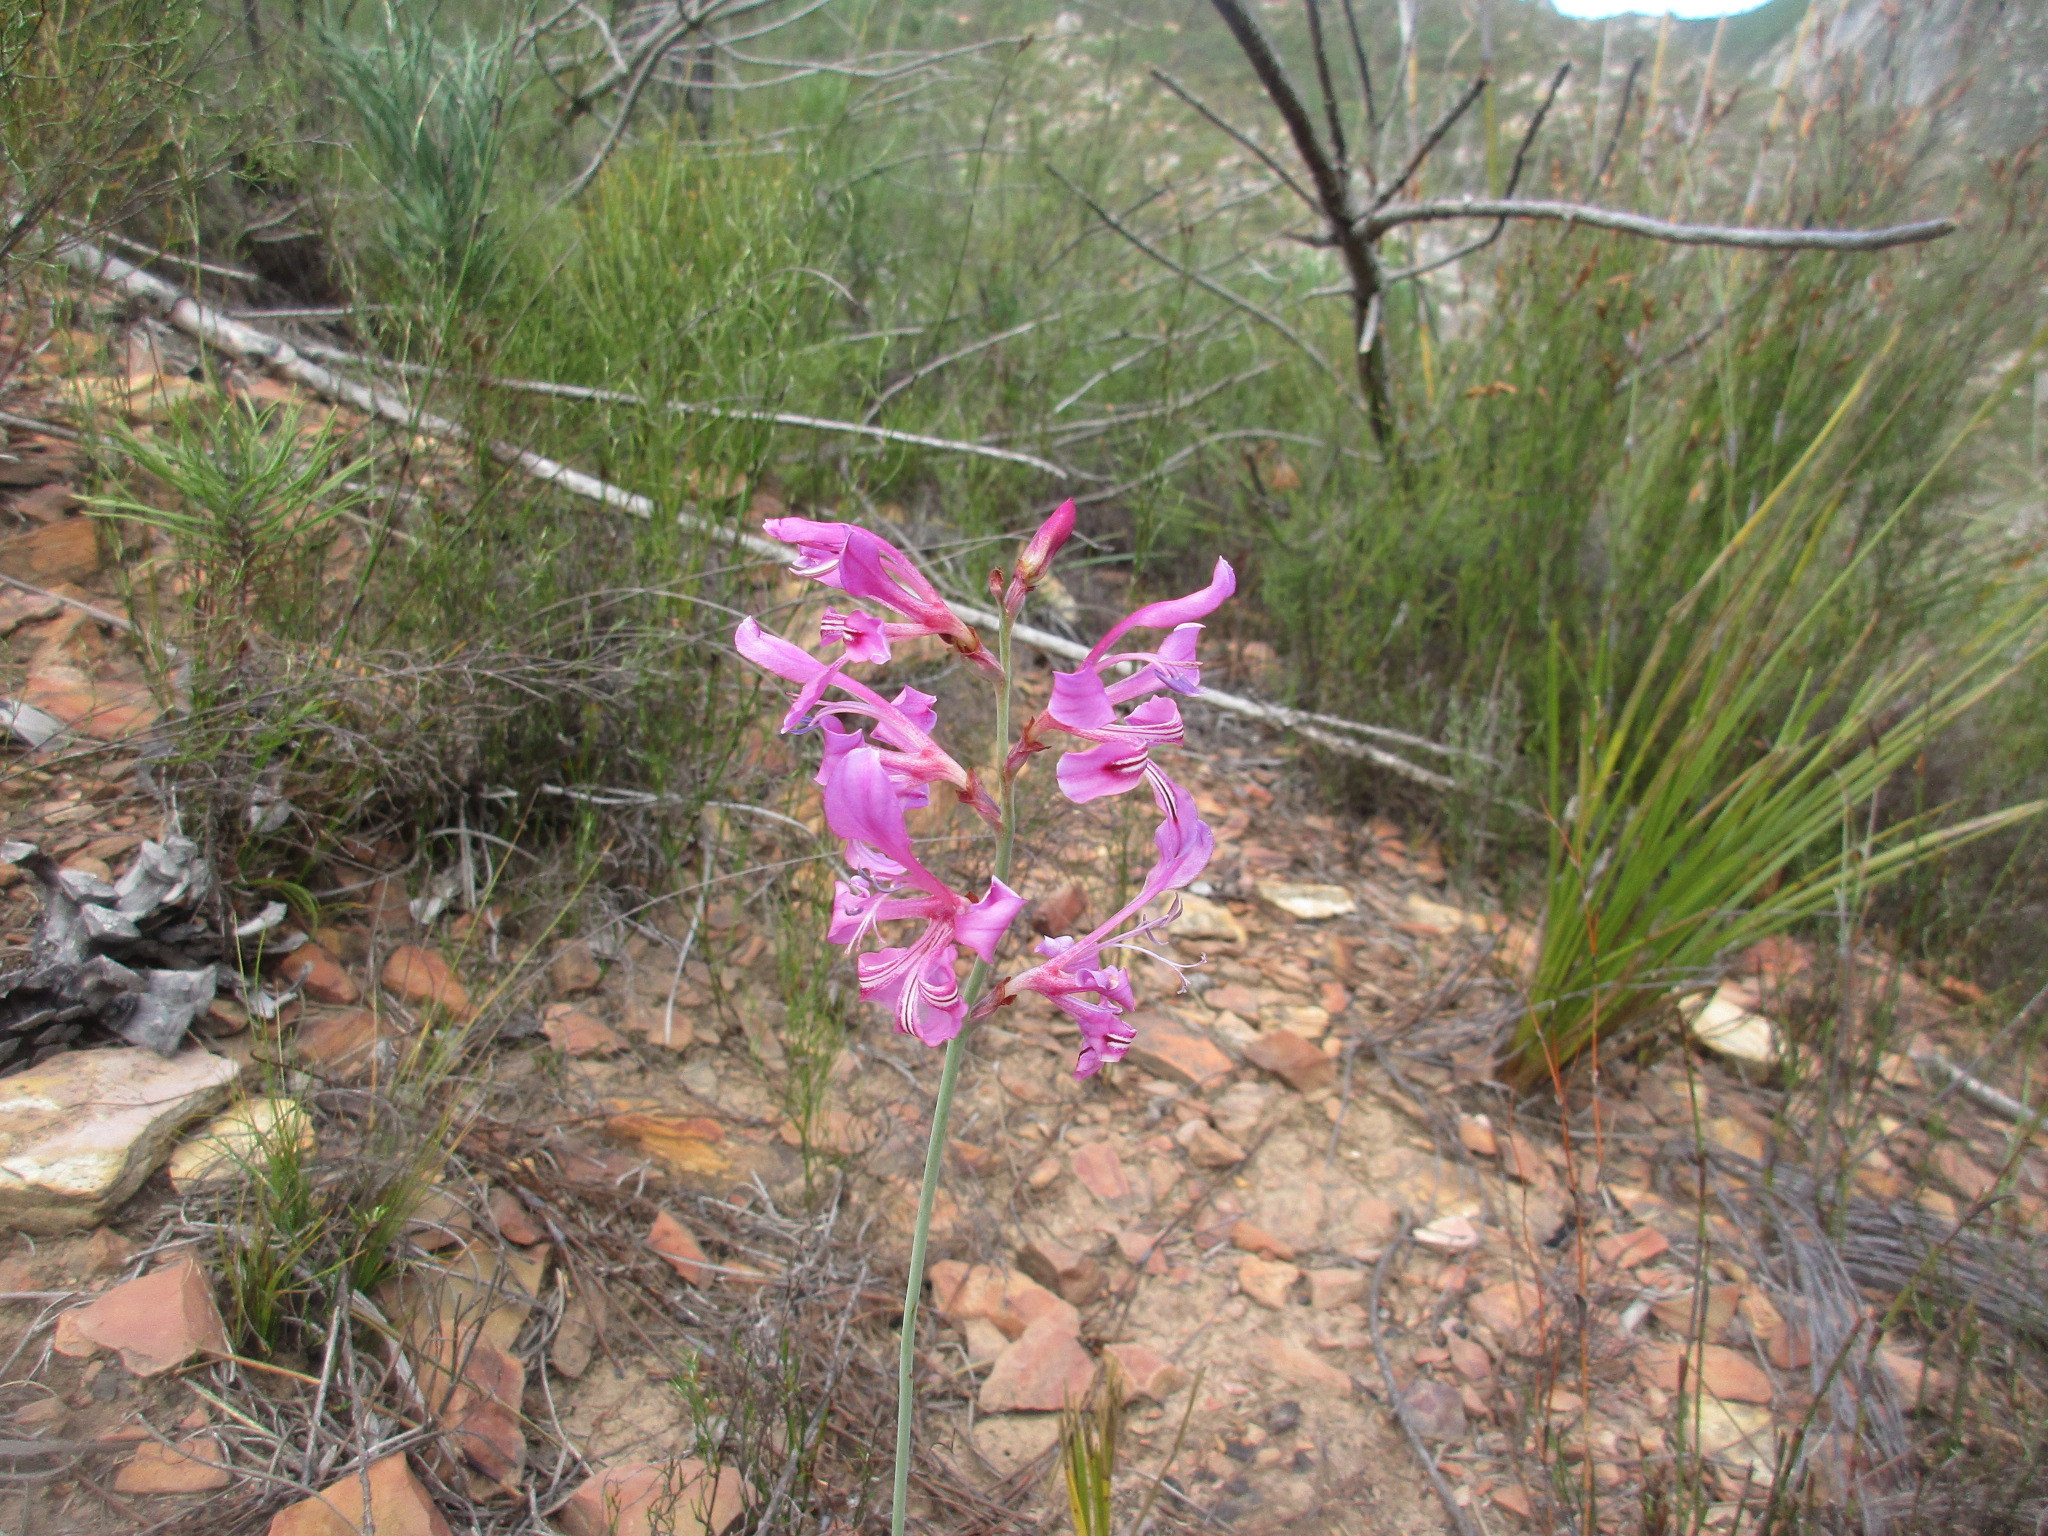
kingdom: Plantae
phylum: Tracheophyta
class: Liliopsida
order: Asparagales
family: Iridaceae
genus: Tritoniopsis
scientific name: Tritoniopsis lata
